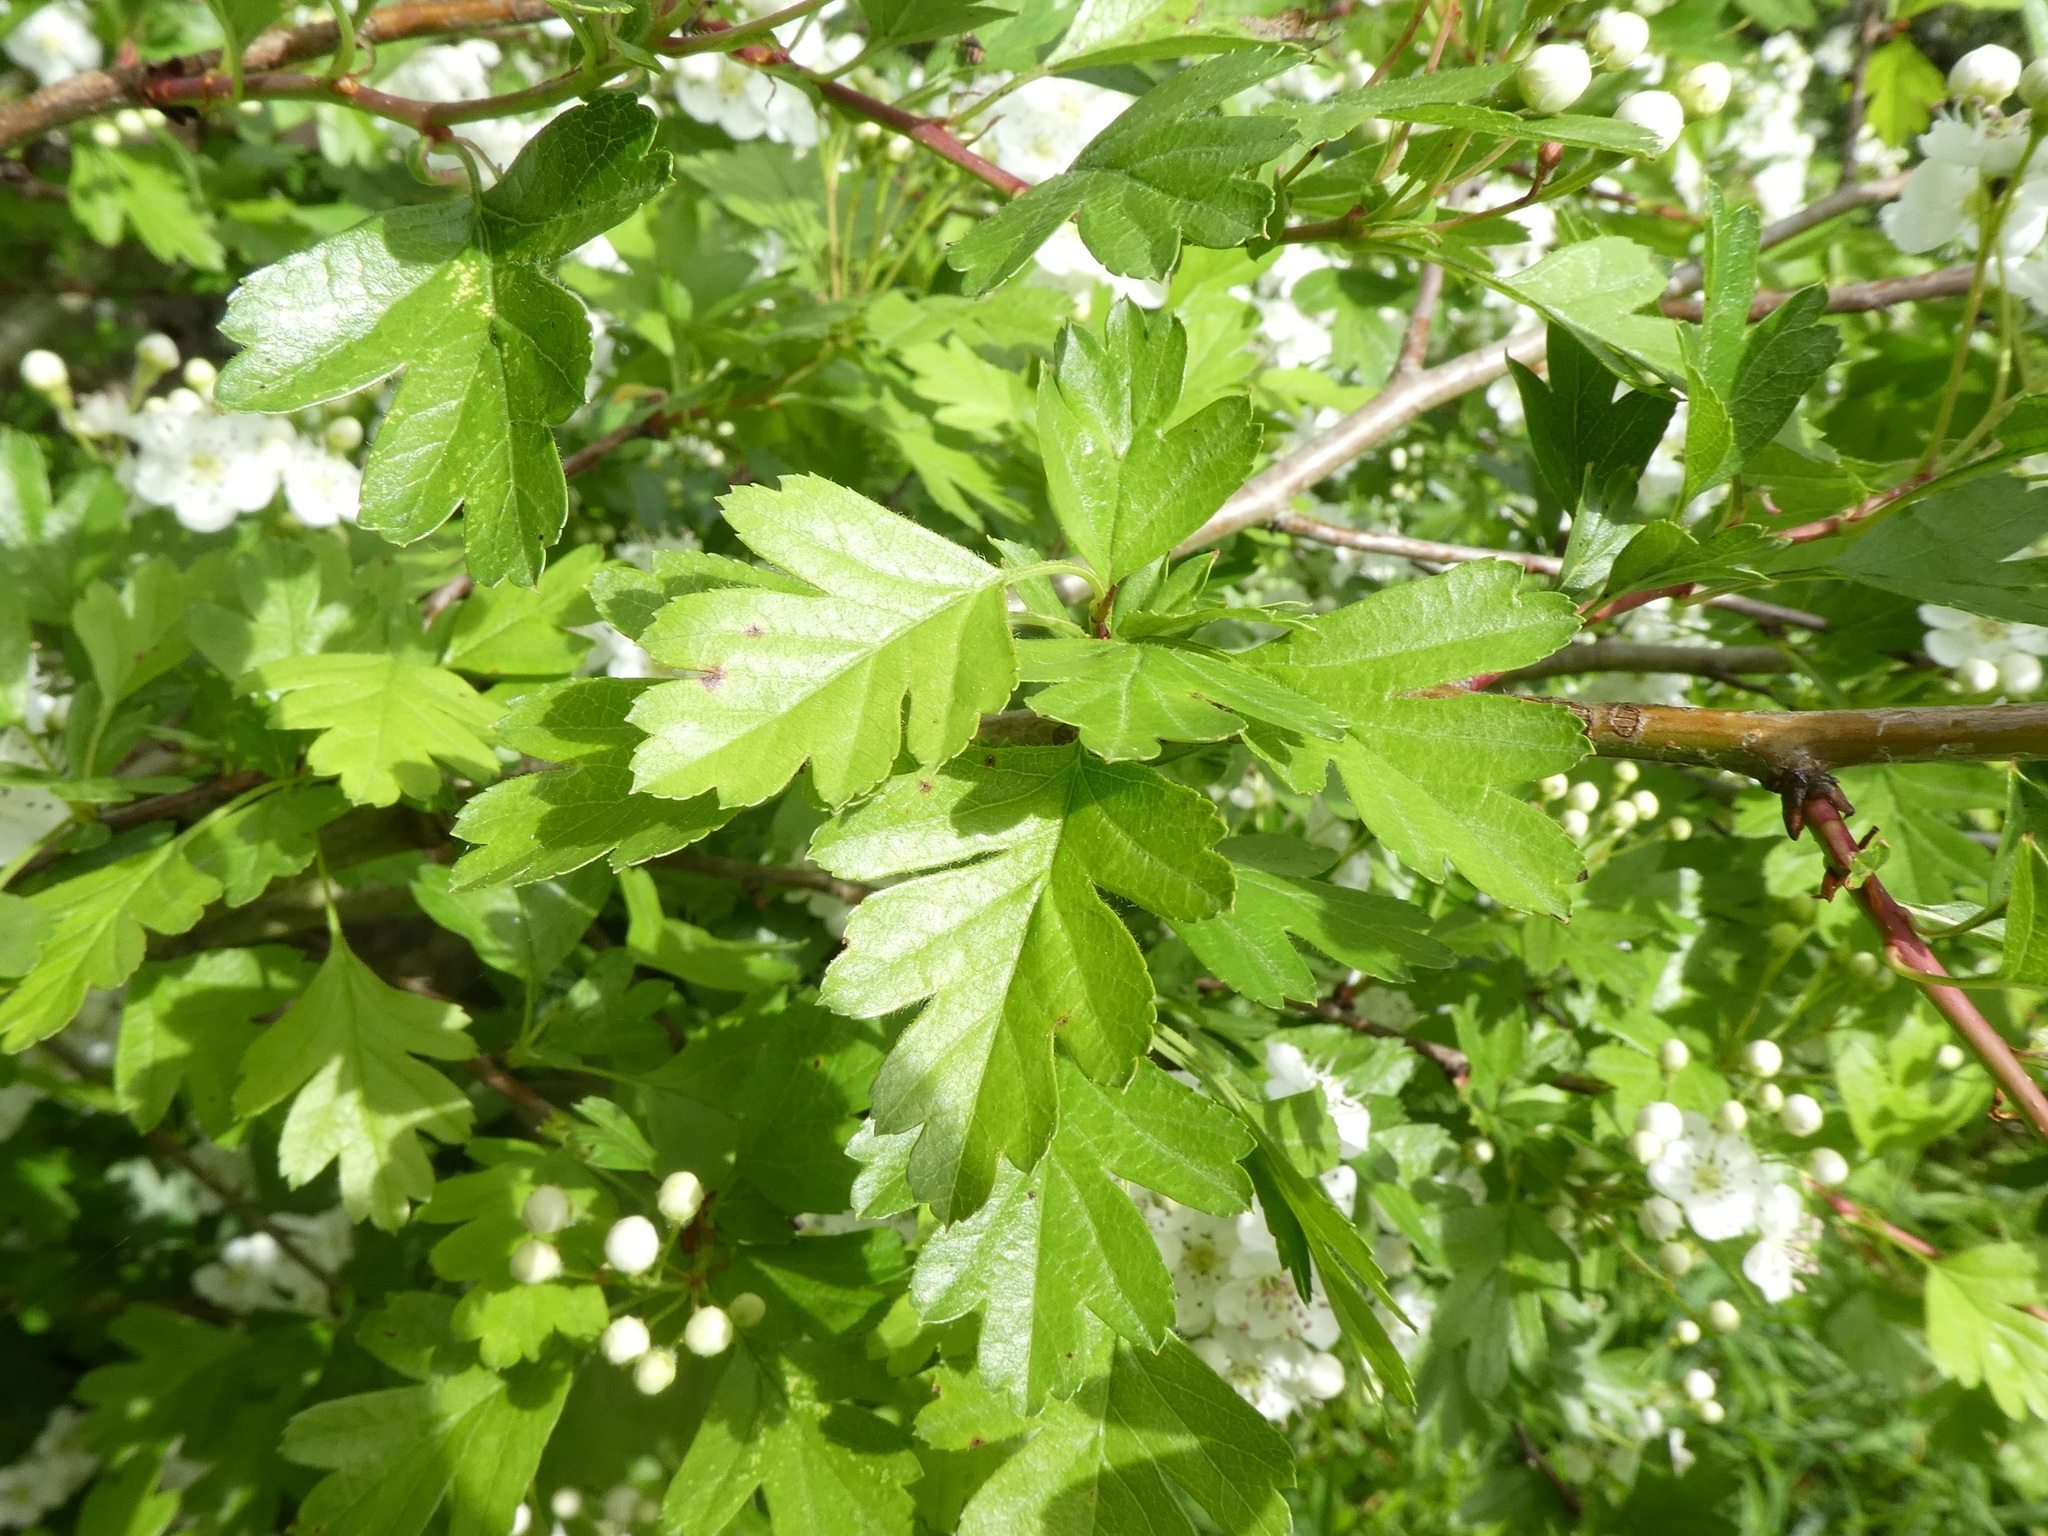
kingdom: Plantae
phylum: Tracheophyta
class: Magnoliopsida
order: Rosales
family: Rosaceae
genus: Crataegus
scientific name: Crataegus monogyna
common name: Hawthorn
